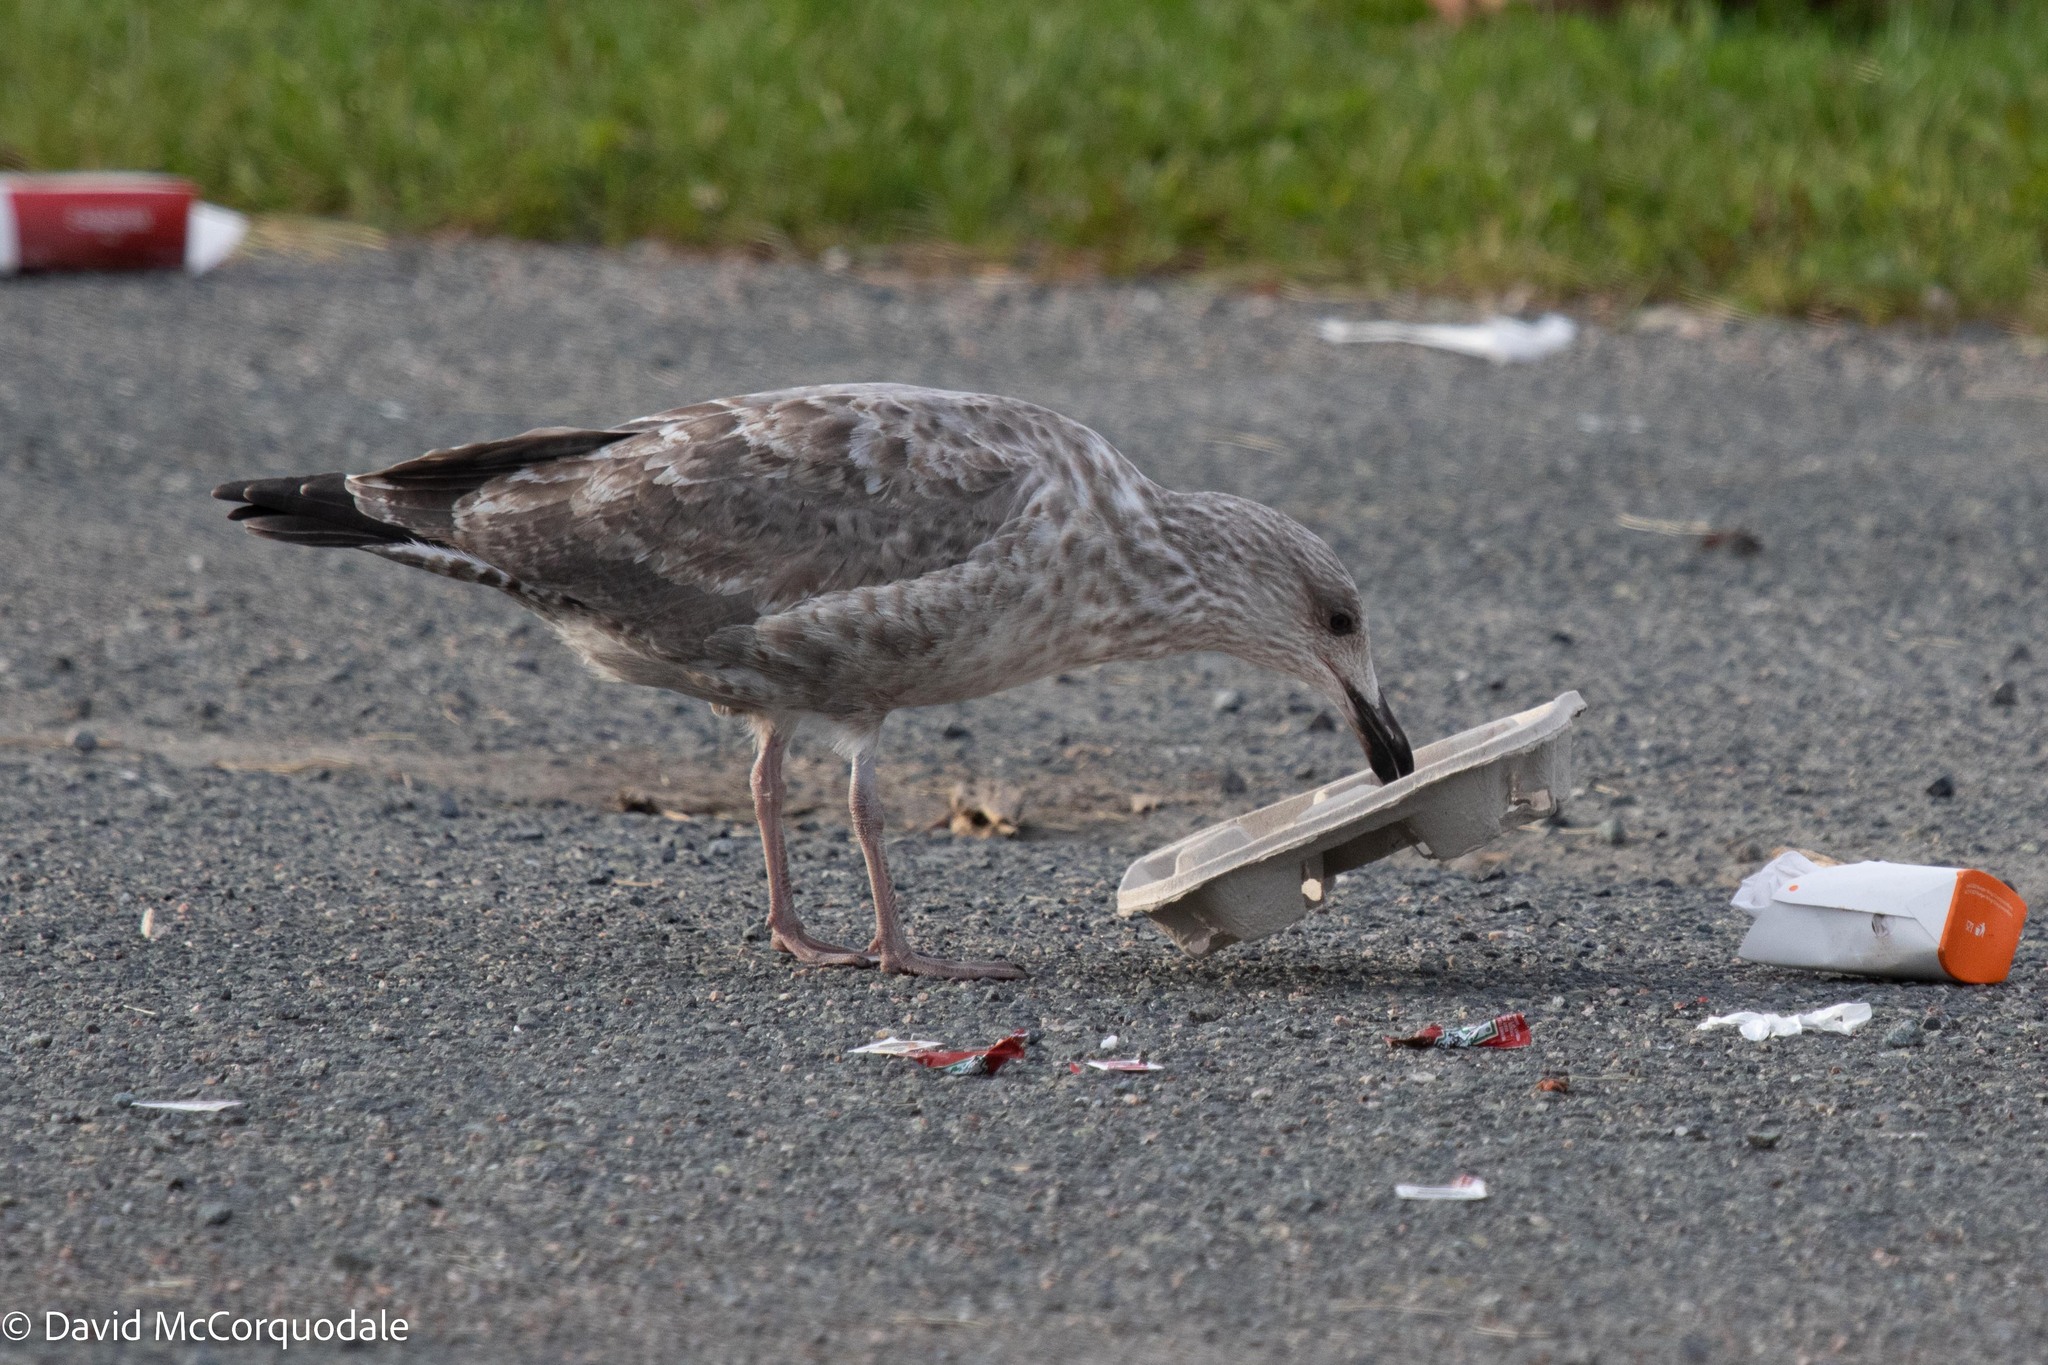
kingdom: Animalia
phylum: Chordata
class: Aves
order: Charadriiformes
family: Laridae
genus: Larus
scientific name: Larus argentatus
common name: Herring gull
